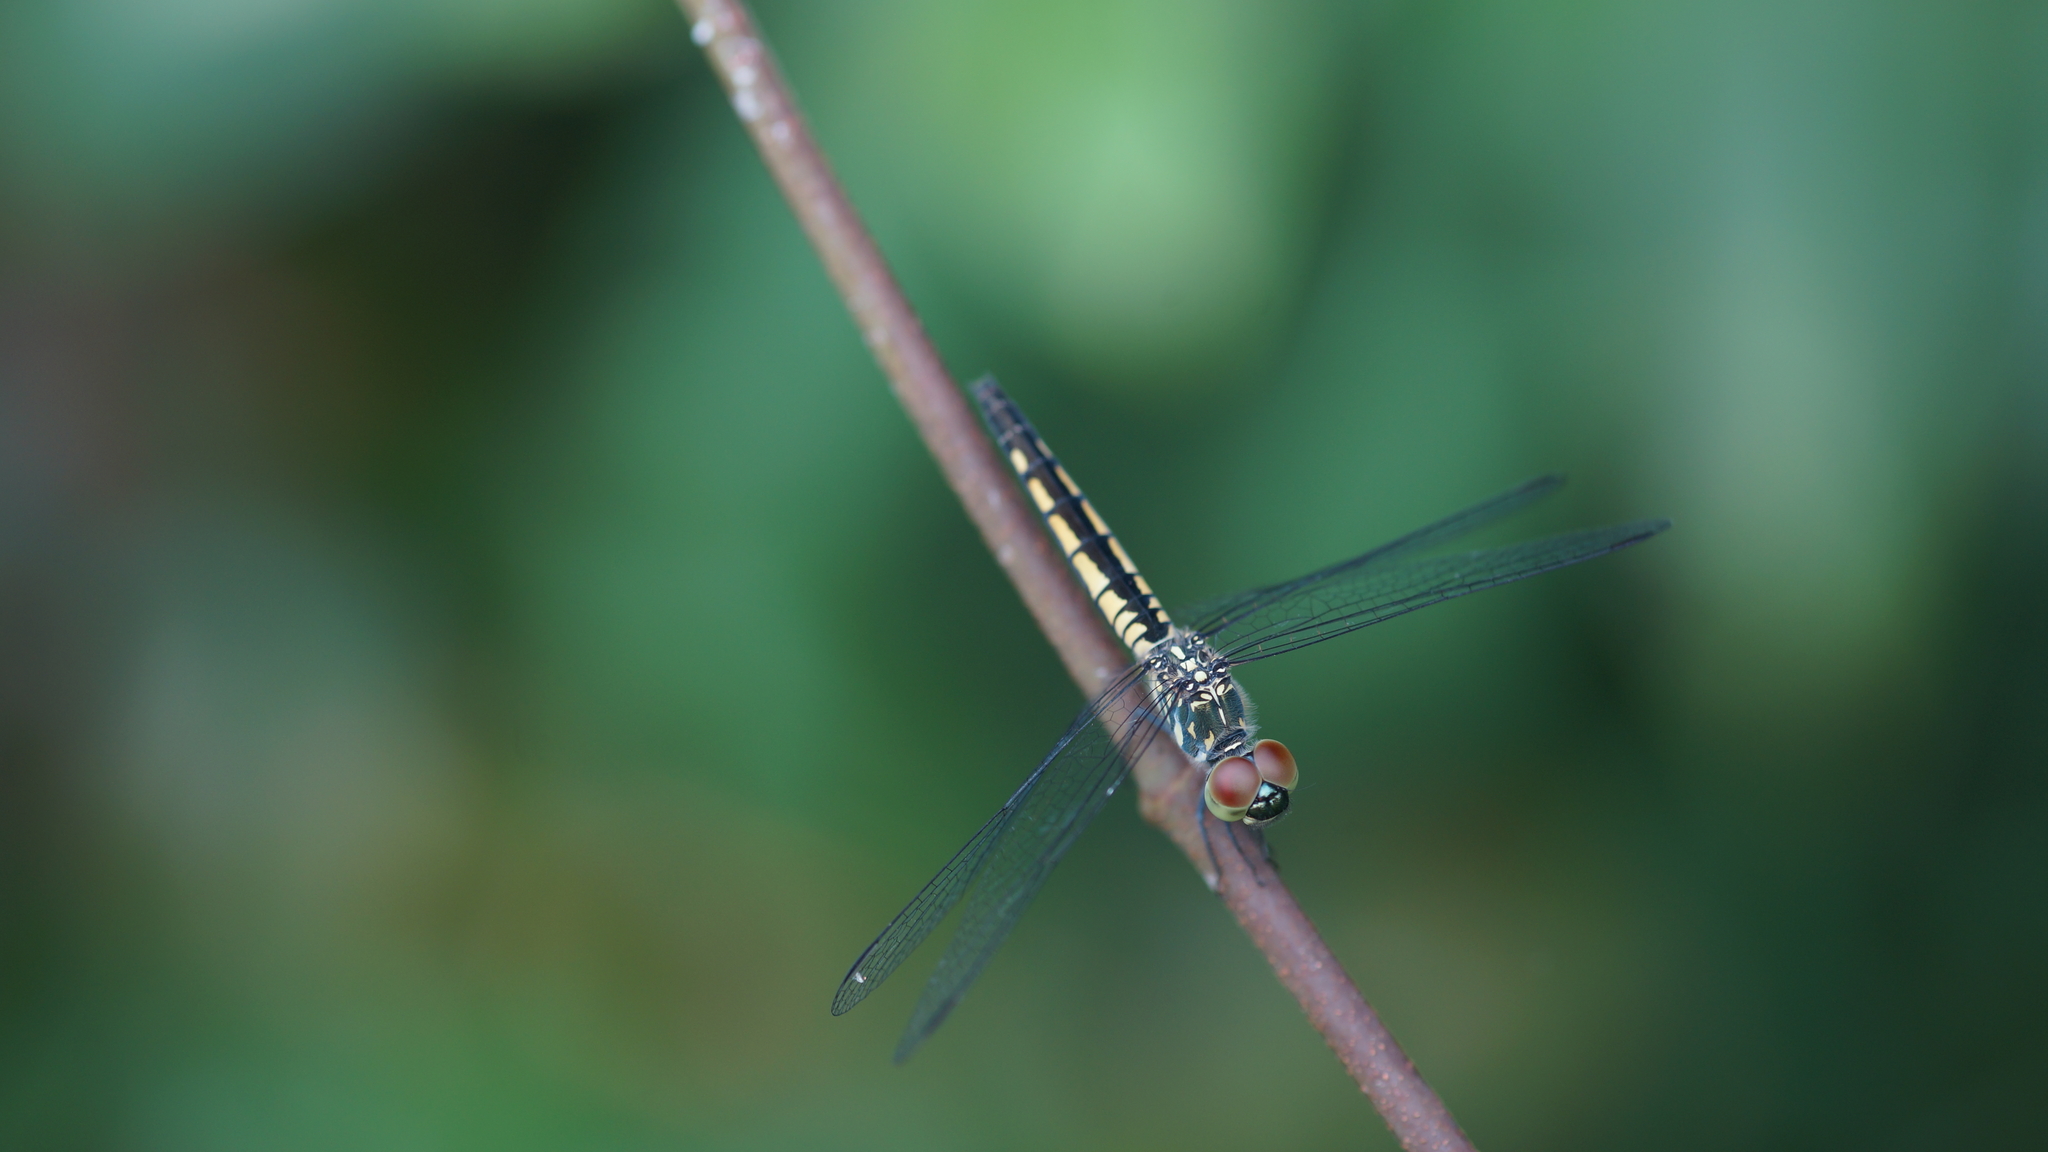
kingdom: Animalia
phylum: Arthropoda
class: Insecta
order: Odonata
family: Libellulidae
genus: Brachydiplax
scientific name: Brachydiplax sobrina
